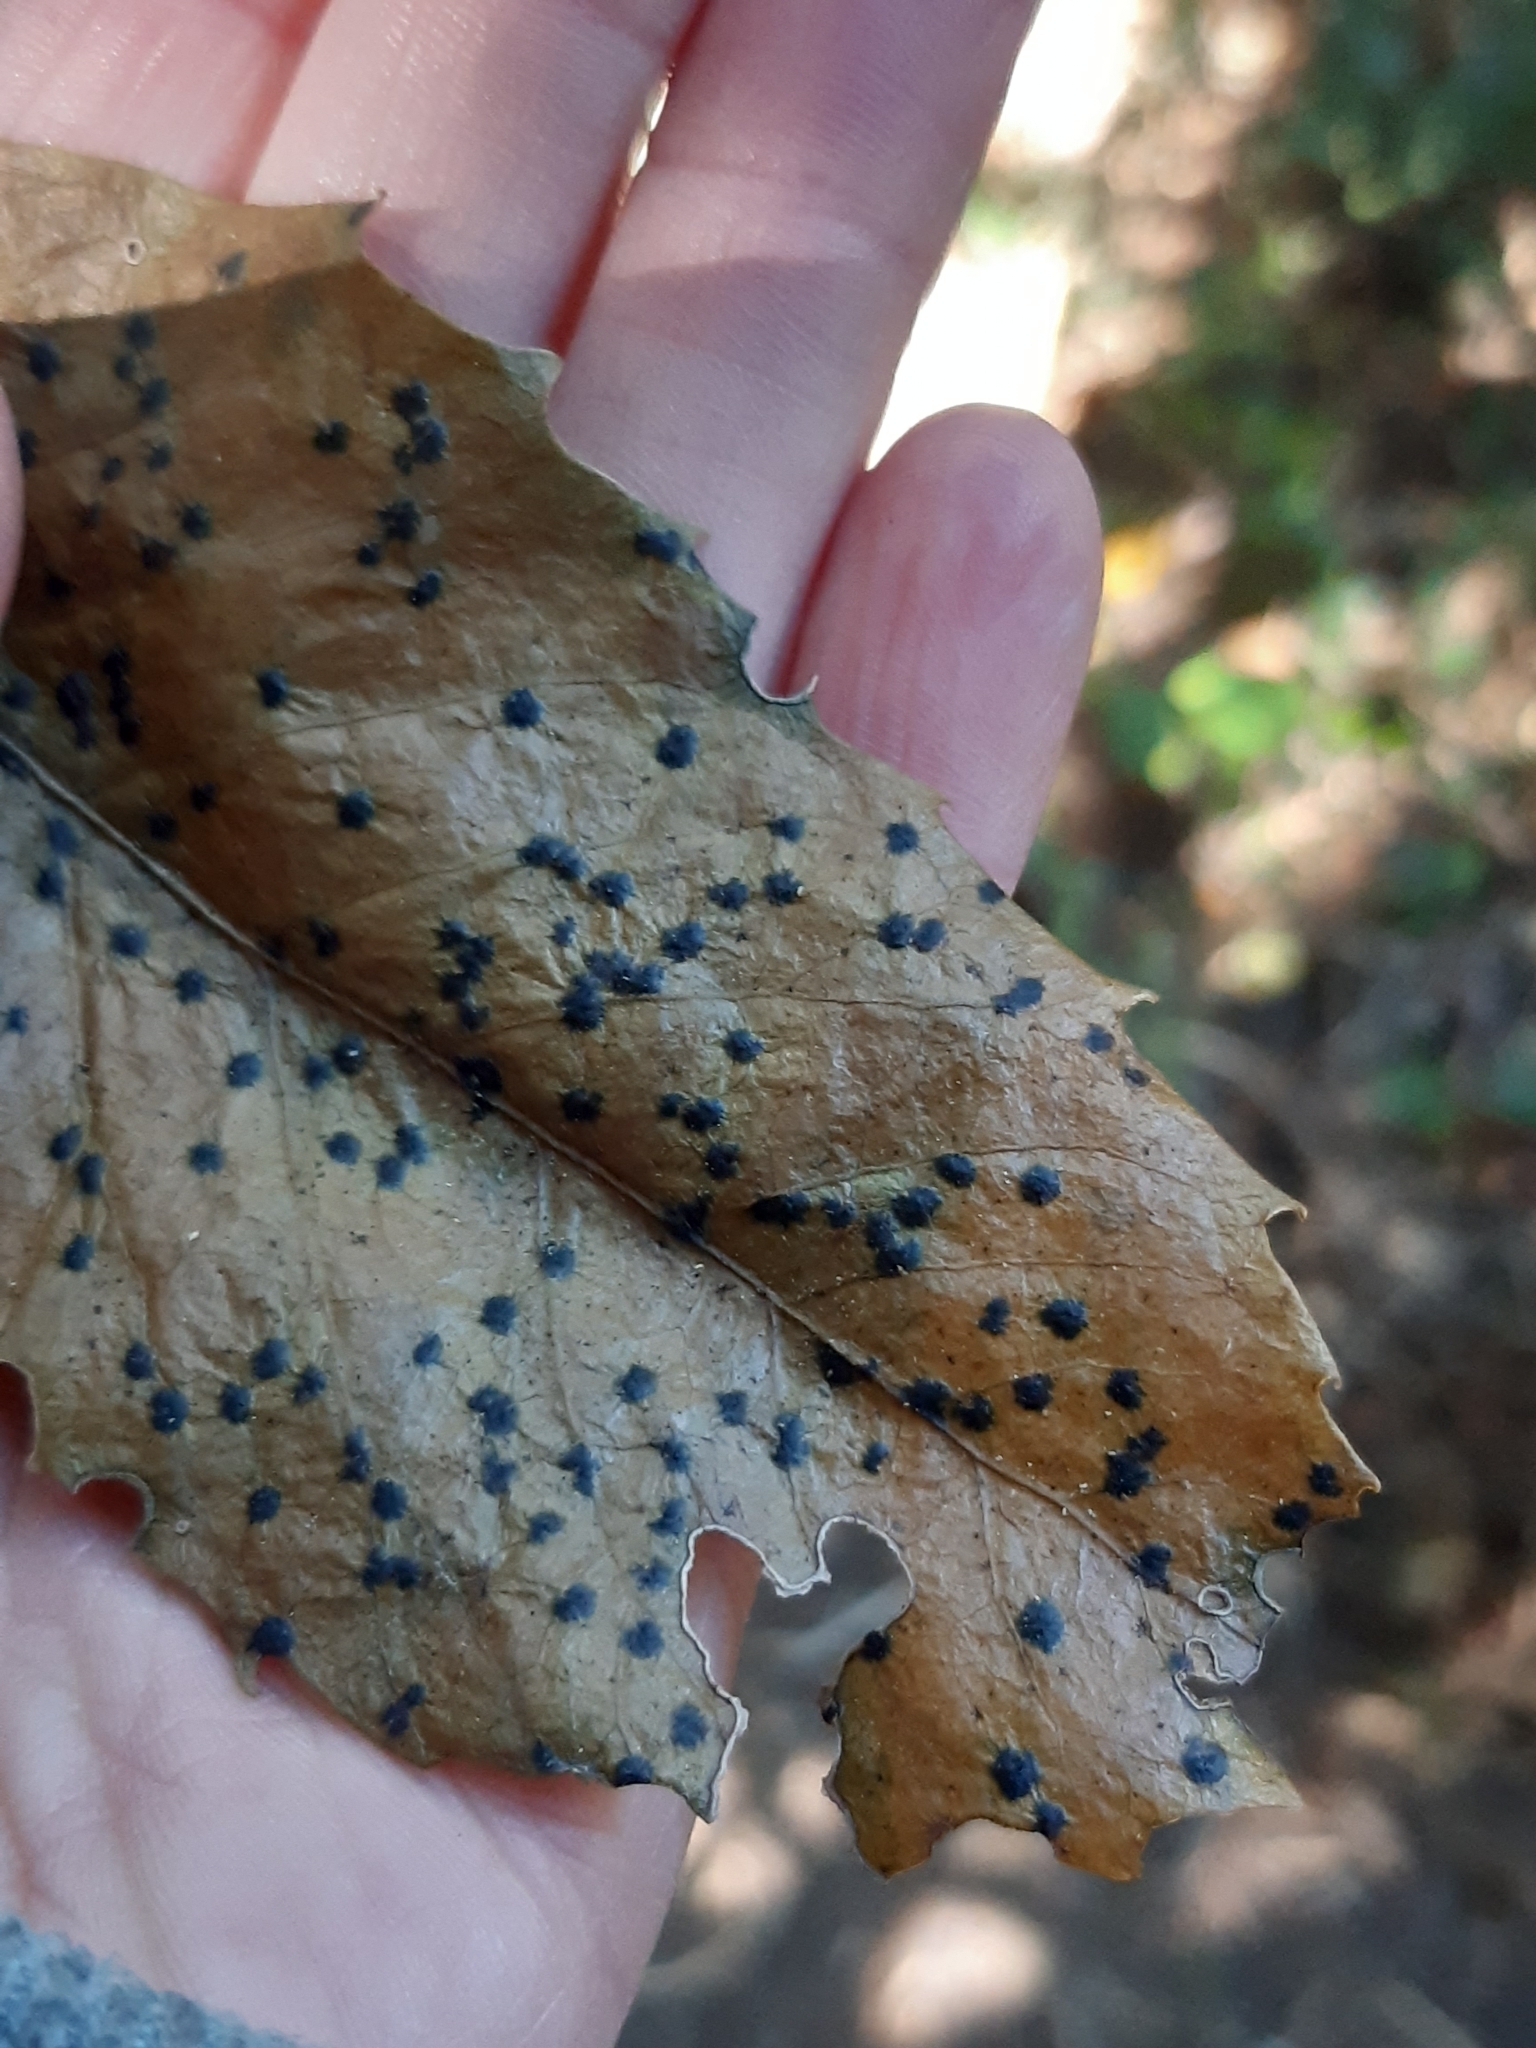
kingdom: Fungi
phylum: Ascomycota
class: Dothideomycetes
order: Asterinales
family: Asterinaceae
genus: Placosoma
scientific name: Placosoma nothopanacis
